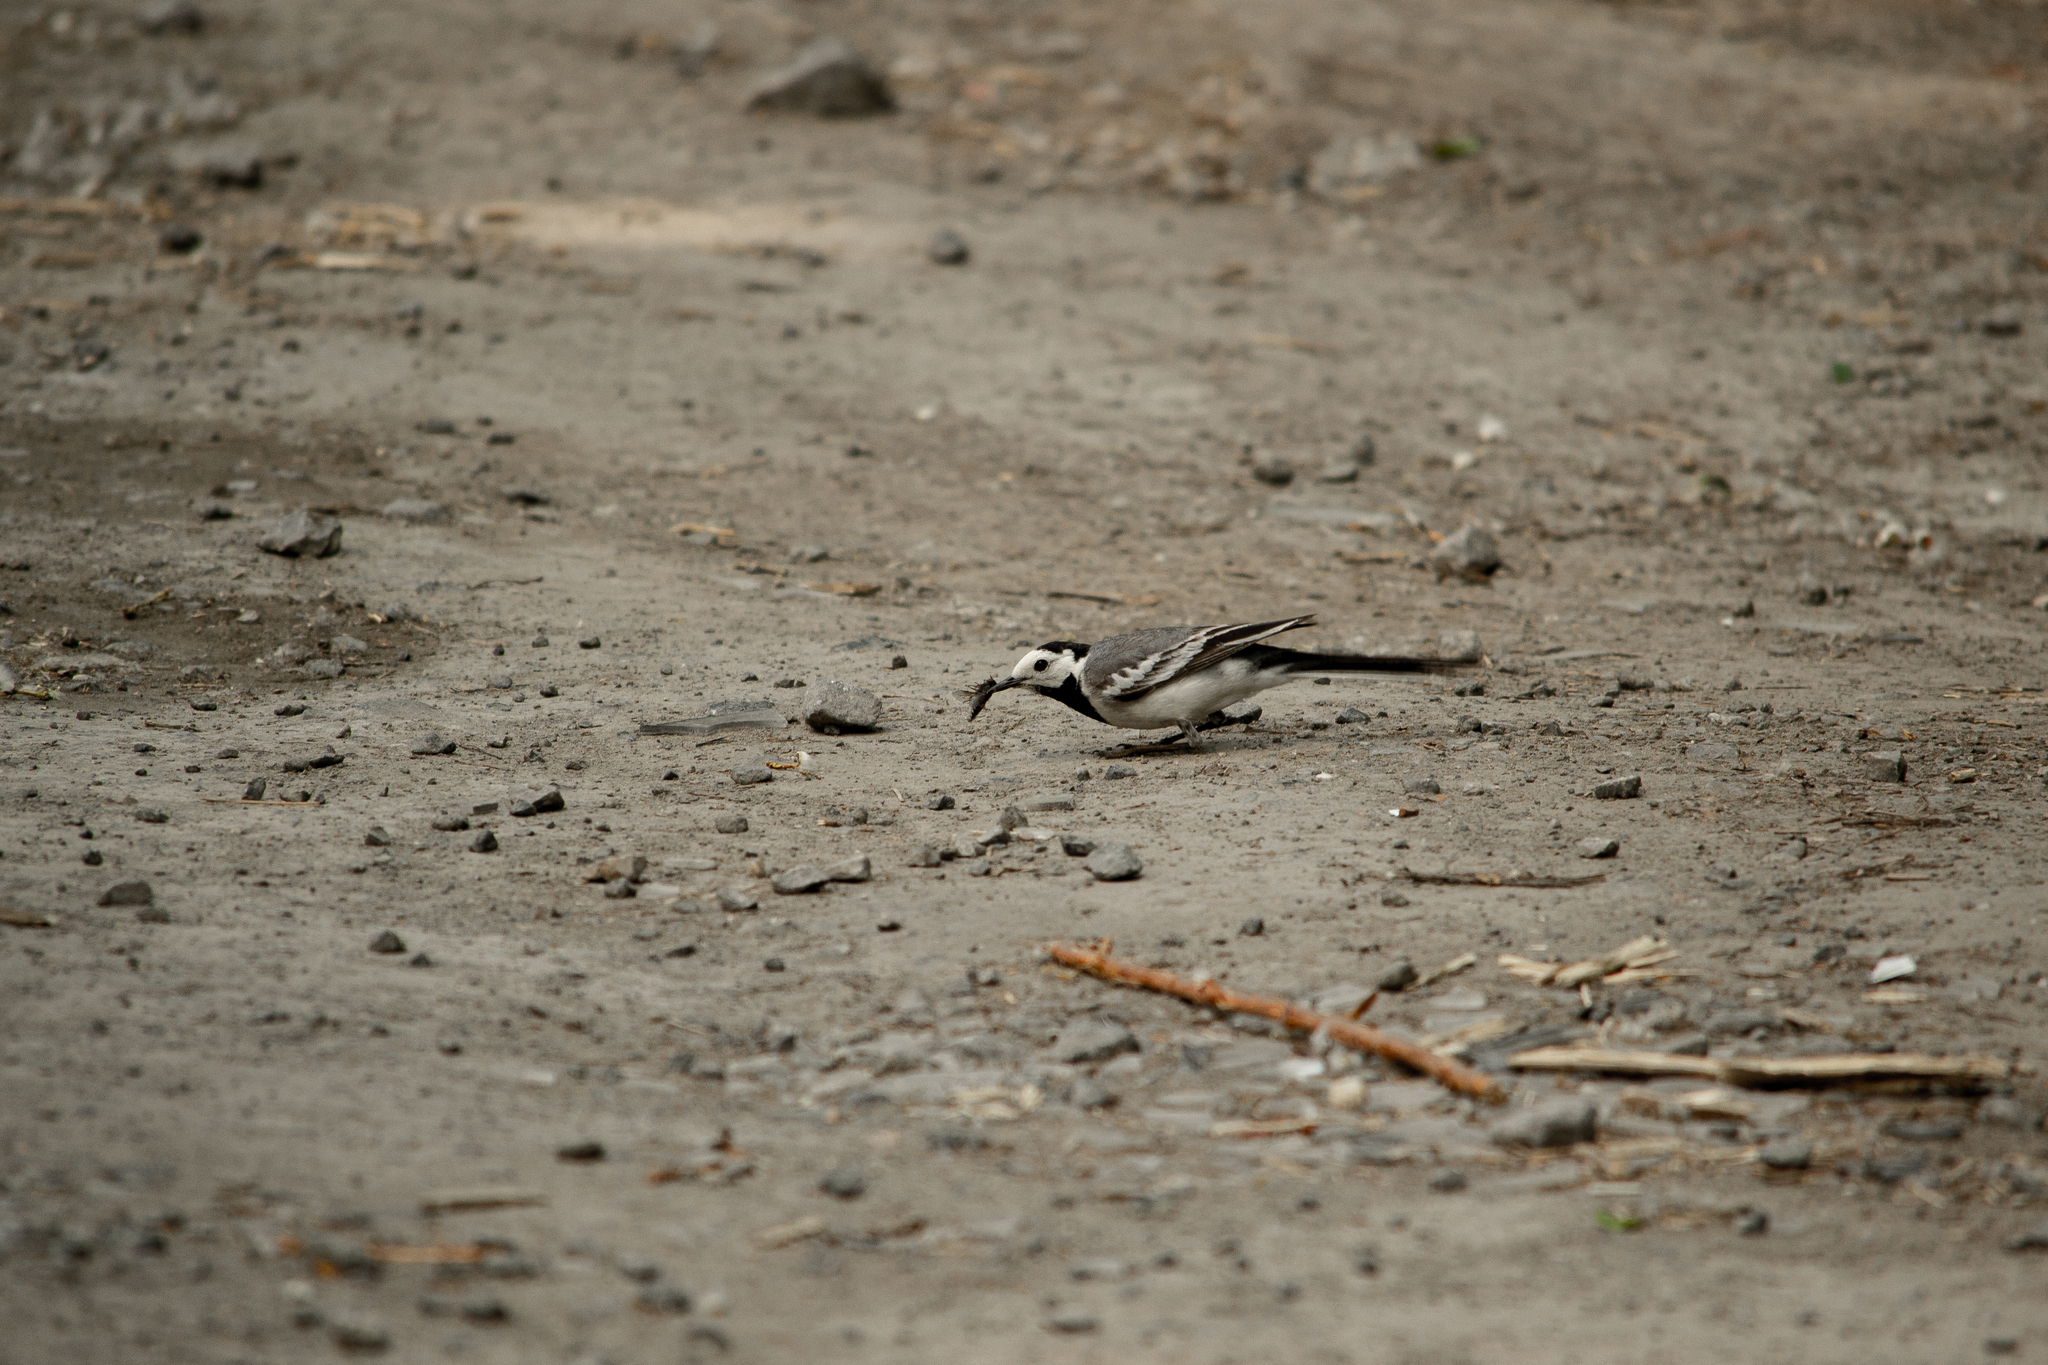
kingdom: Animalia
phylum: Chordata
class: Aves
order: Passeriformes
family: Motacillidae
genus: Motacilla
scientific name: Motacilla alba
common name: White wagtail
